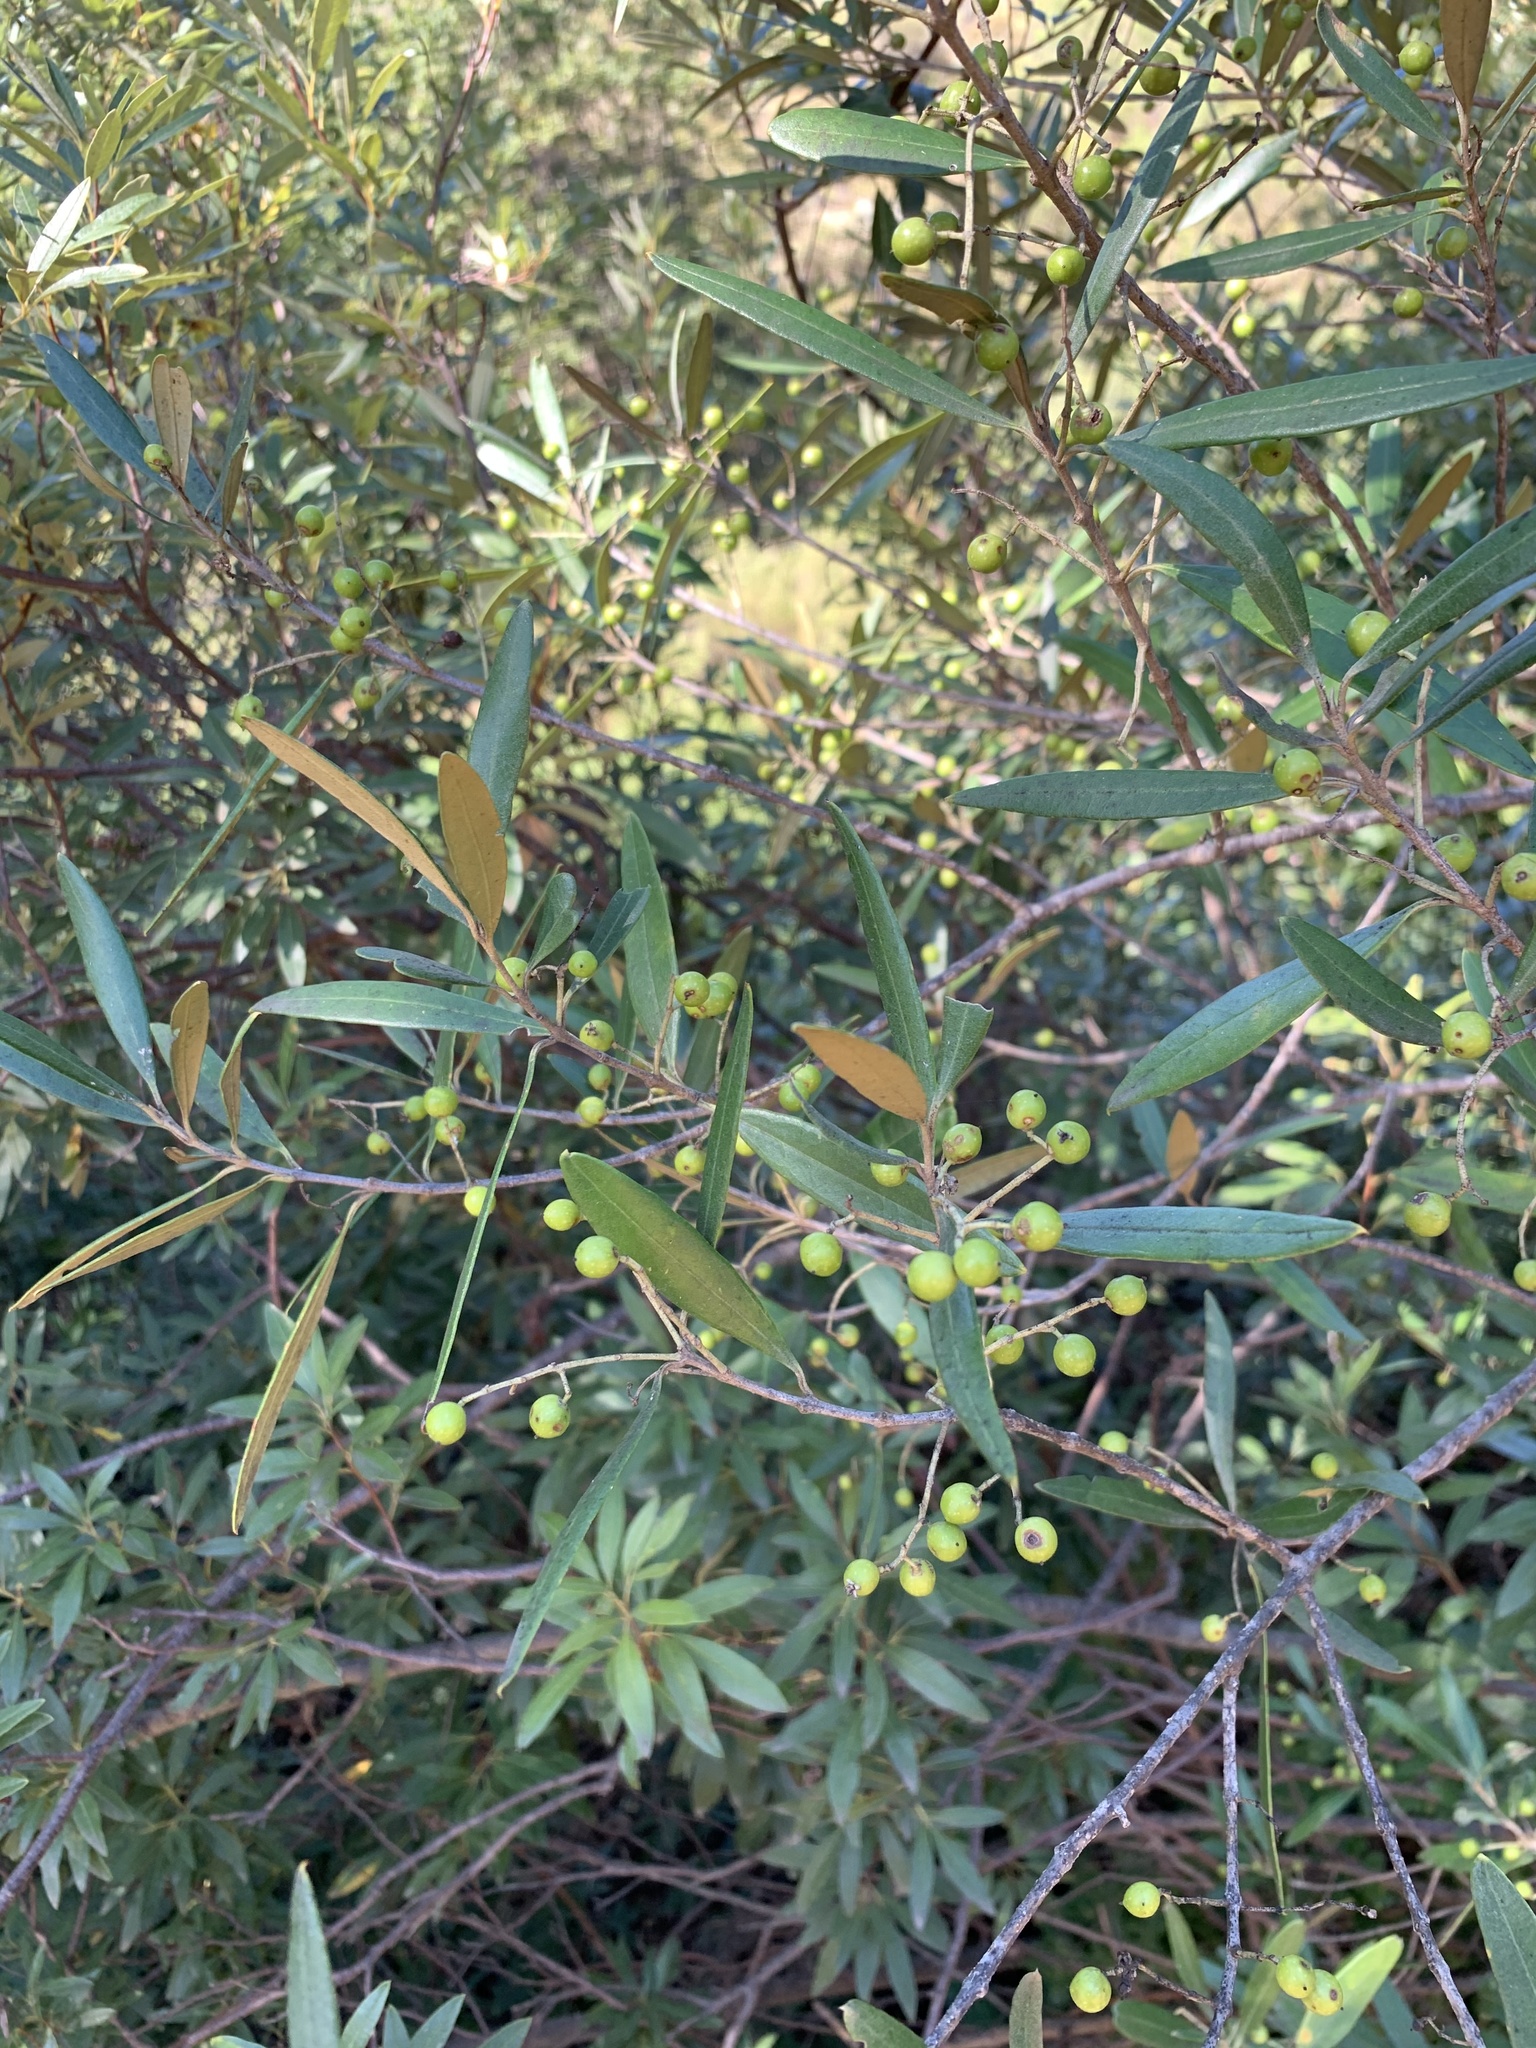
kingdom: Plantae
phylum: Tracheophyta
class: Magnoliopsida
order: Lamiales
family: Oleaceae
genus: Olea
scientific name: Olea europaea
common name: Olive
